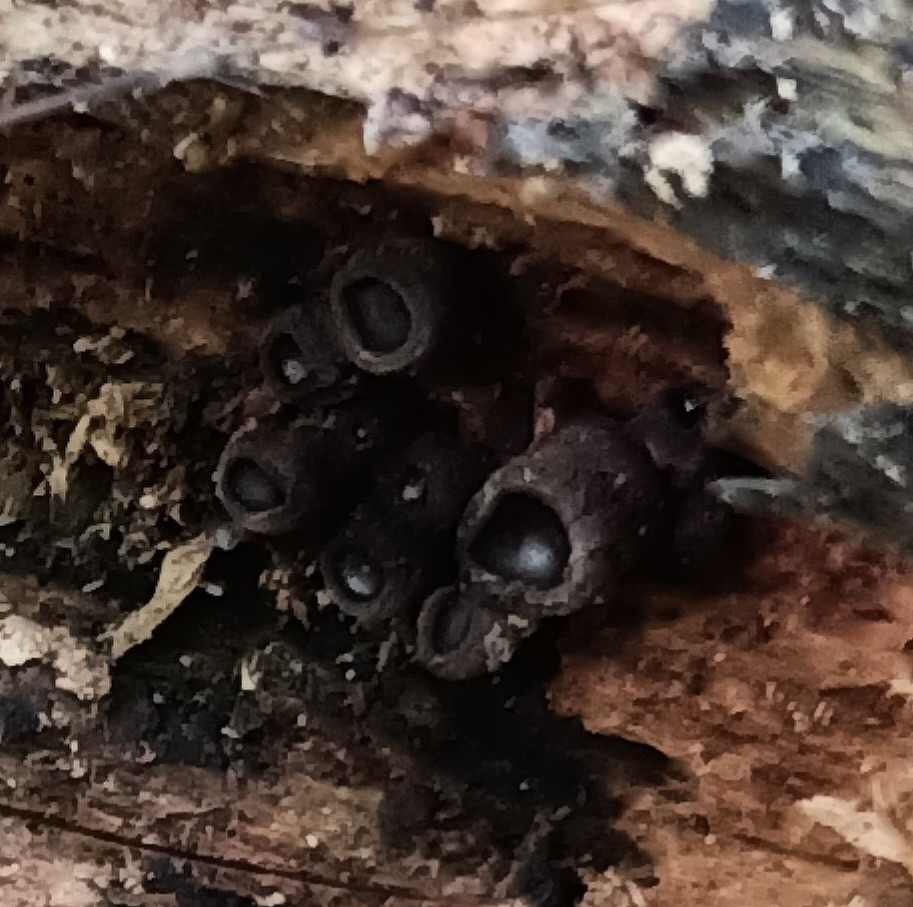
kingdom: Fungi
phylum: Ascomycota
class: Leotiomycetes
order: Phacidiales
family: Phacidiaceae
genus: Bulgaria
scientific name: Bulgaria inquinans
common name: Black bulgar
